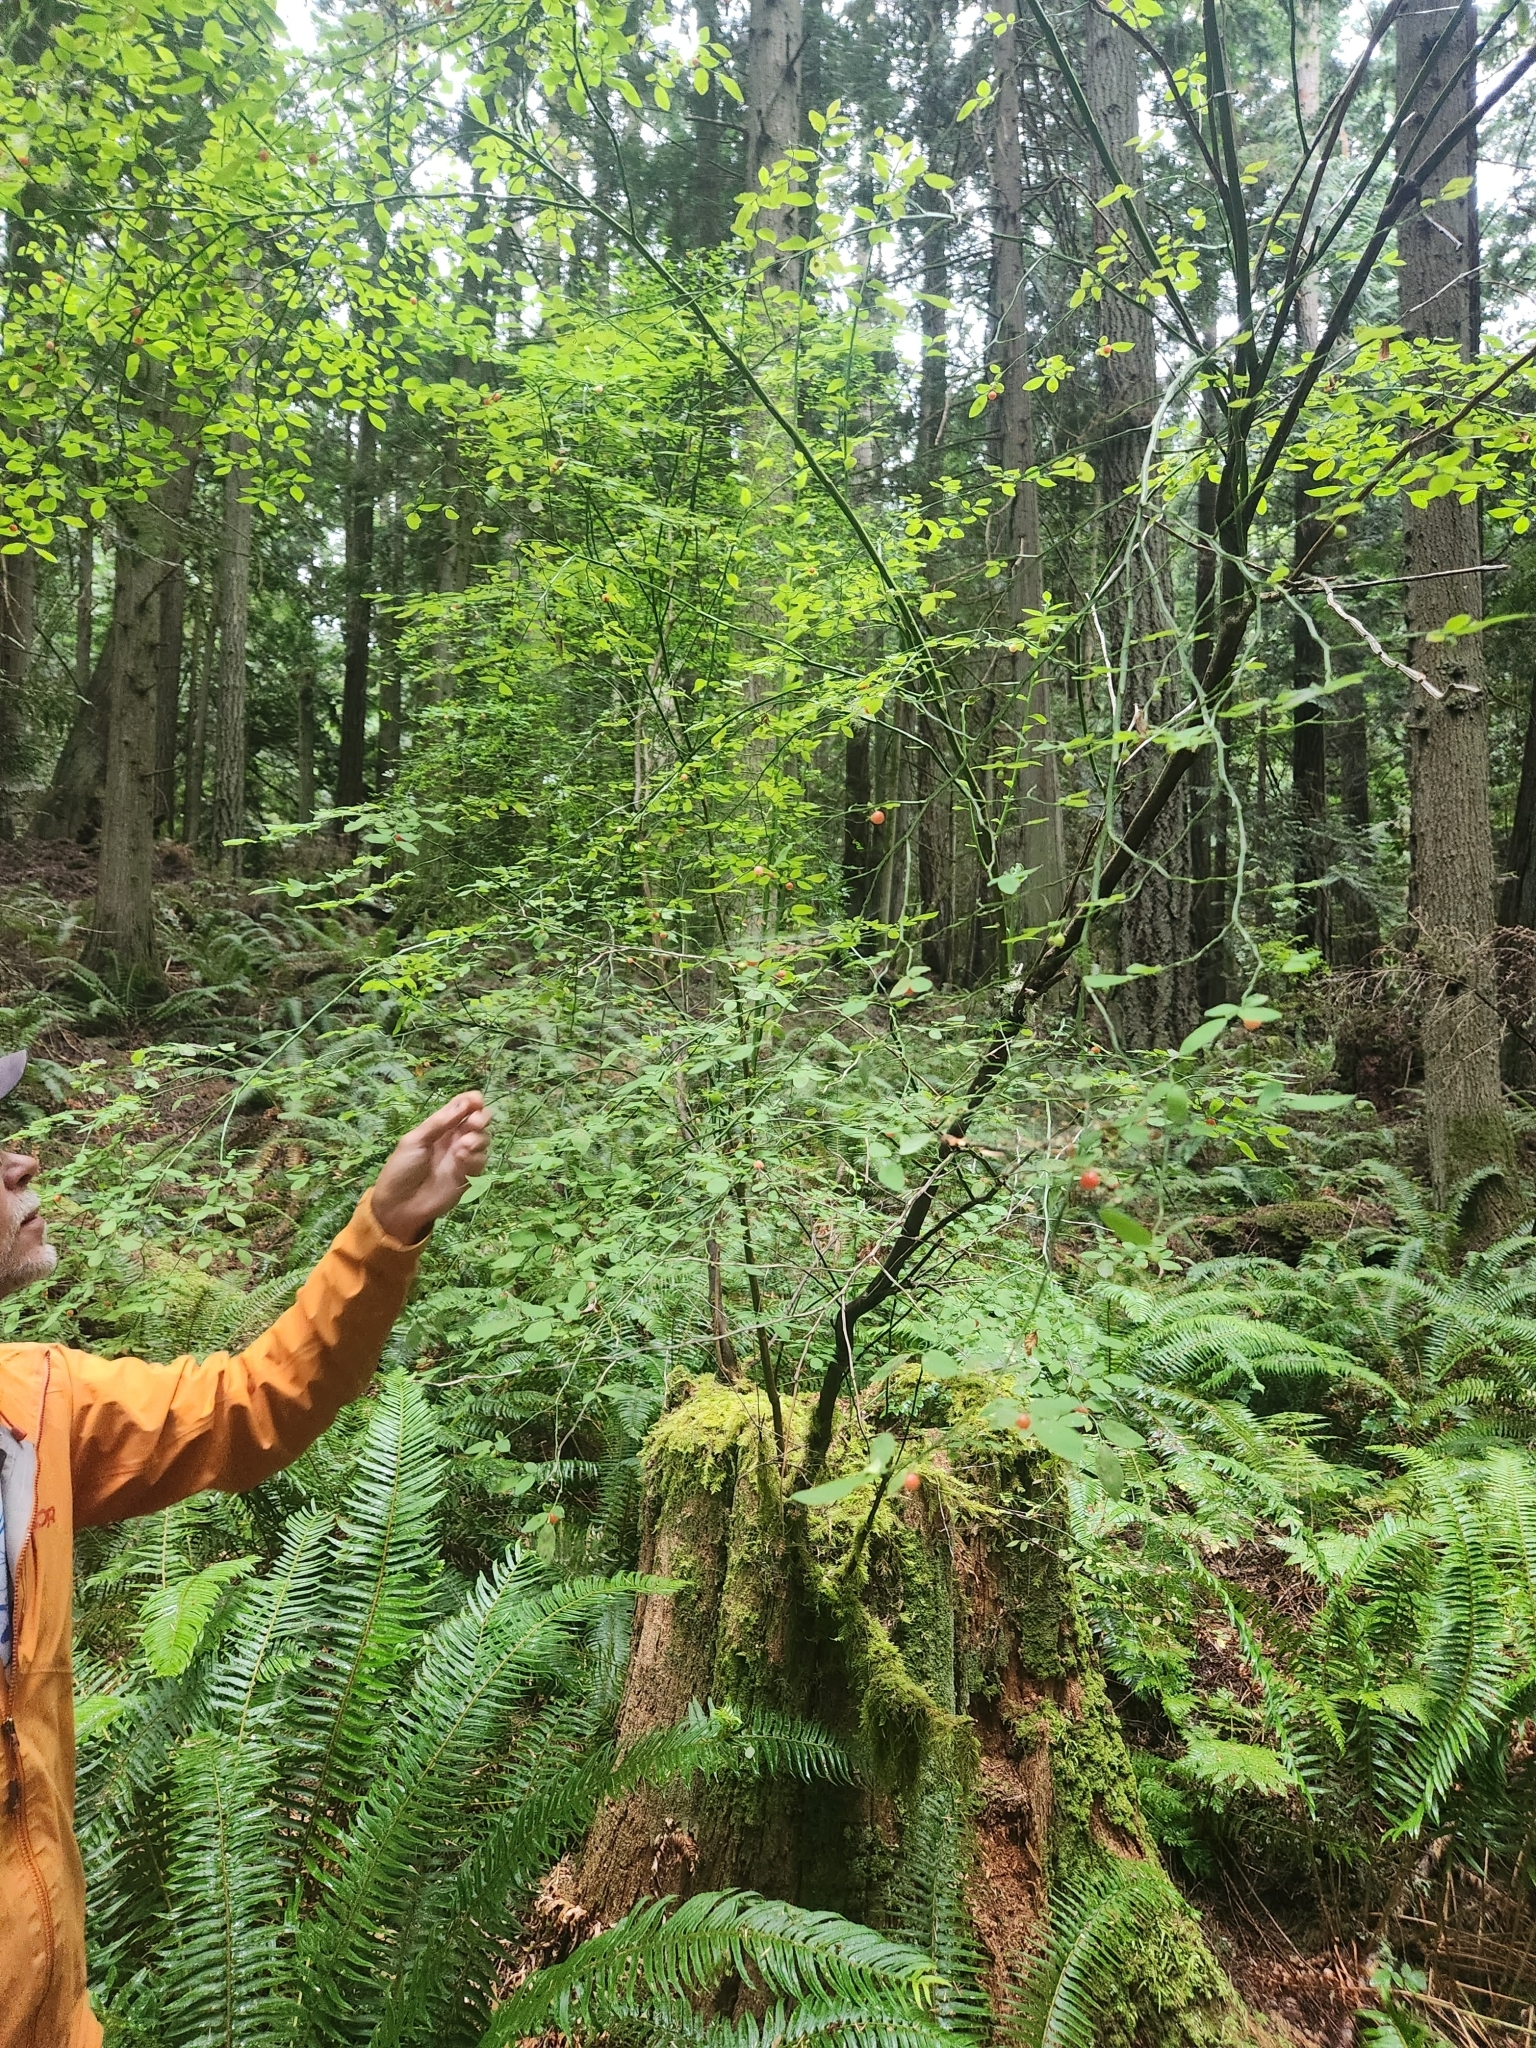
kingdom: Plantae
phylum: Tracheophyta
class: Magnoliopsida
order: Ericales
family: Ericaceae
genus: Vaccinium
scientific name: Vaccinium parvifolium
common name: Red-huckleberry
